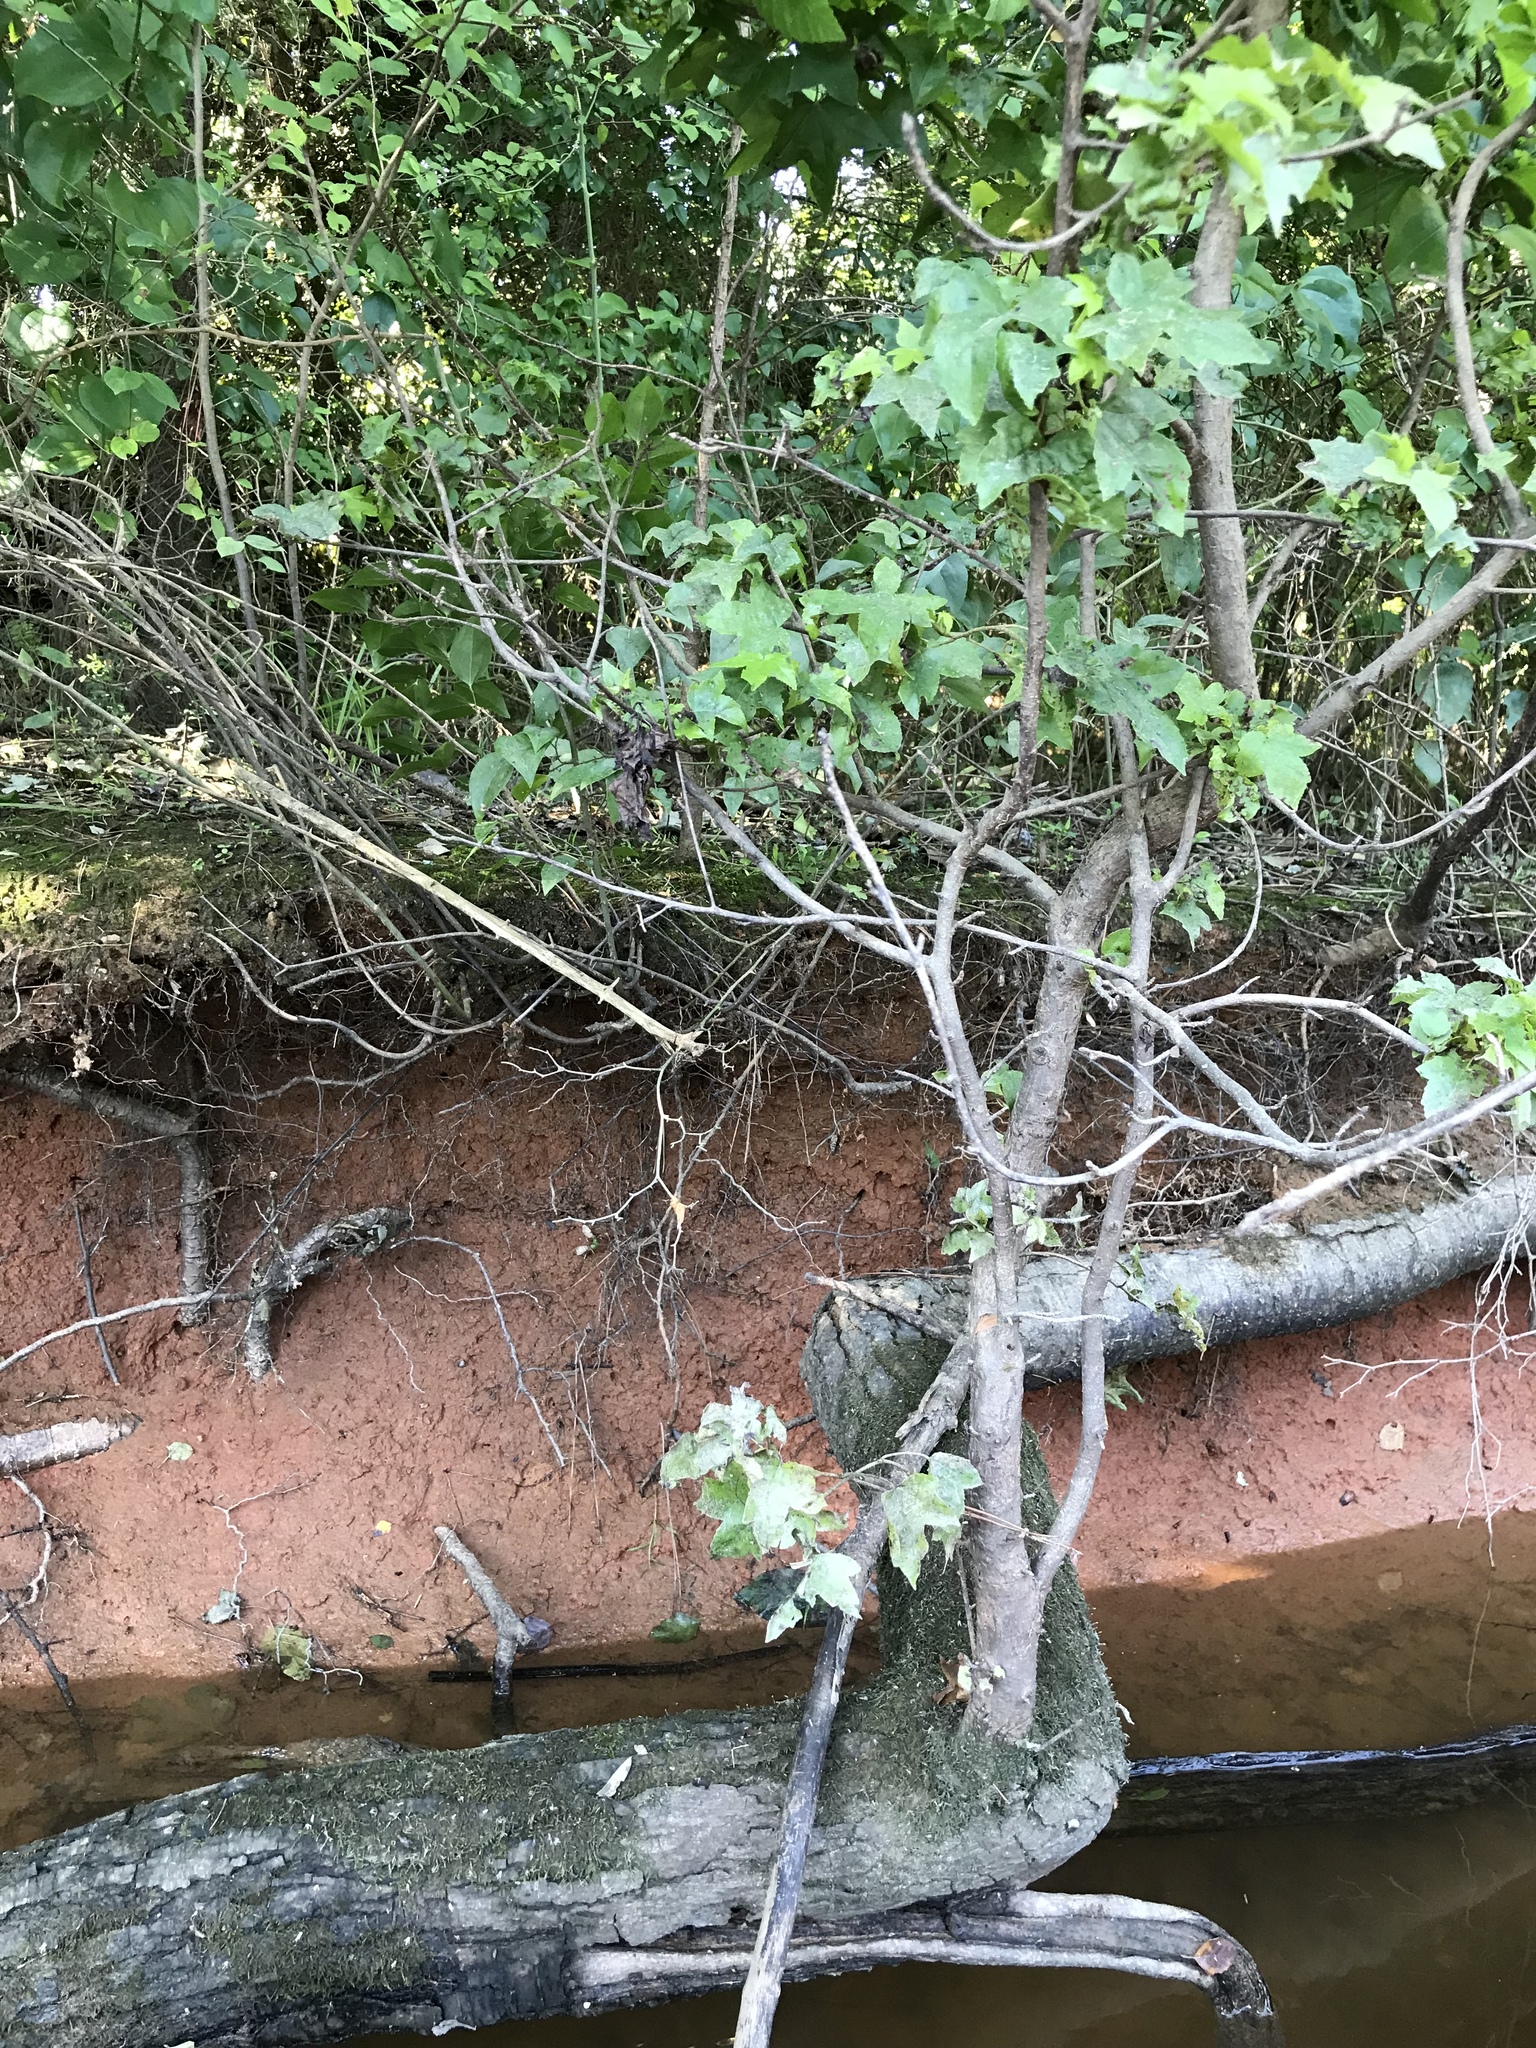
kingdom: Plantae
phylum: Tracheophyta
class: Magnoliopsida
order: Saxifragales
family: Altingiaceae
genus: Liquidambar
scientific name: Liquidambar styraciflua
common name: Sweet gum
